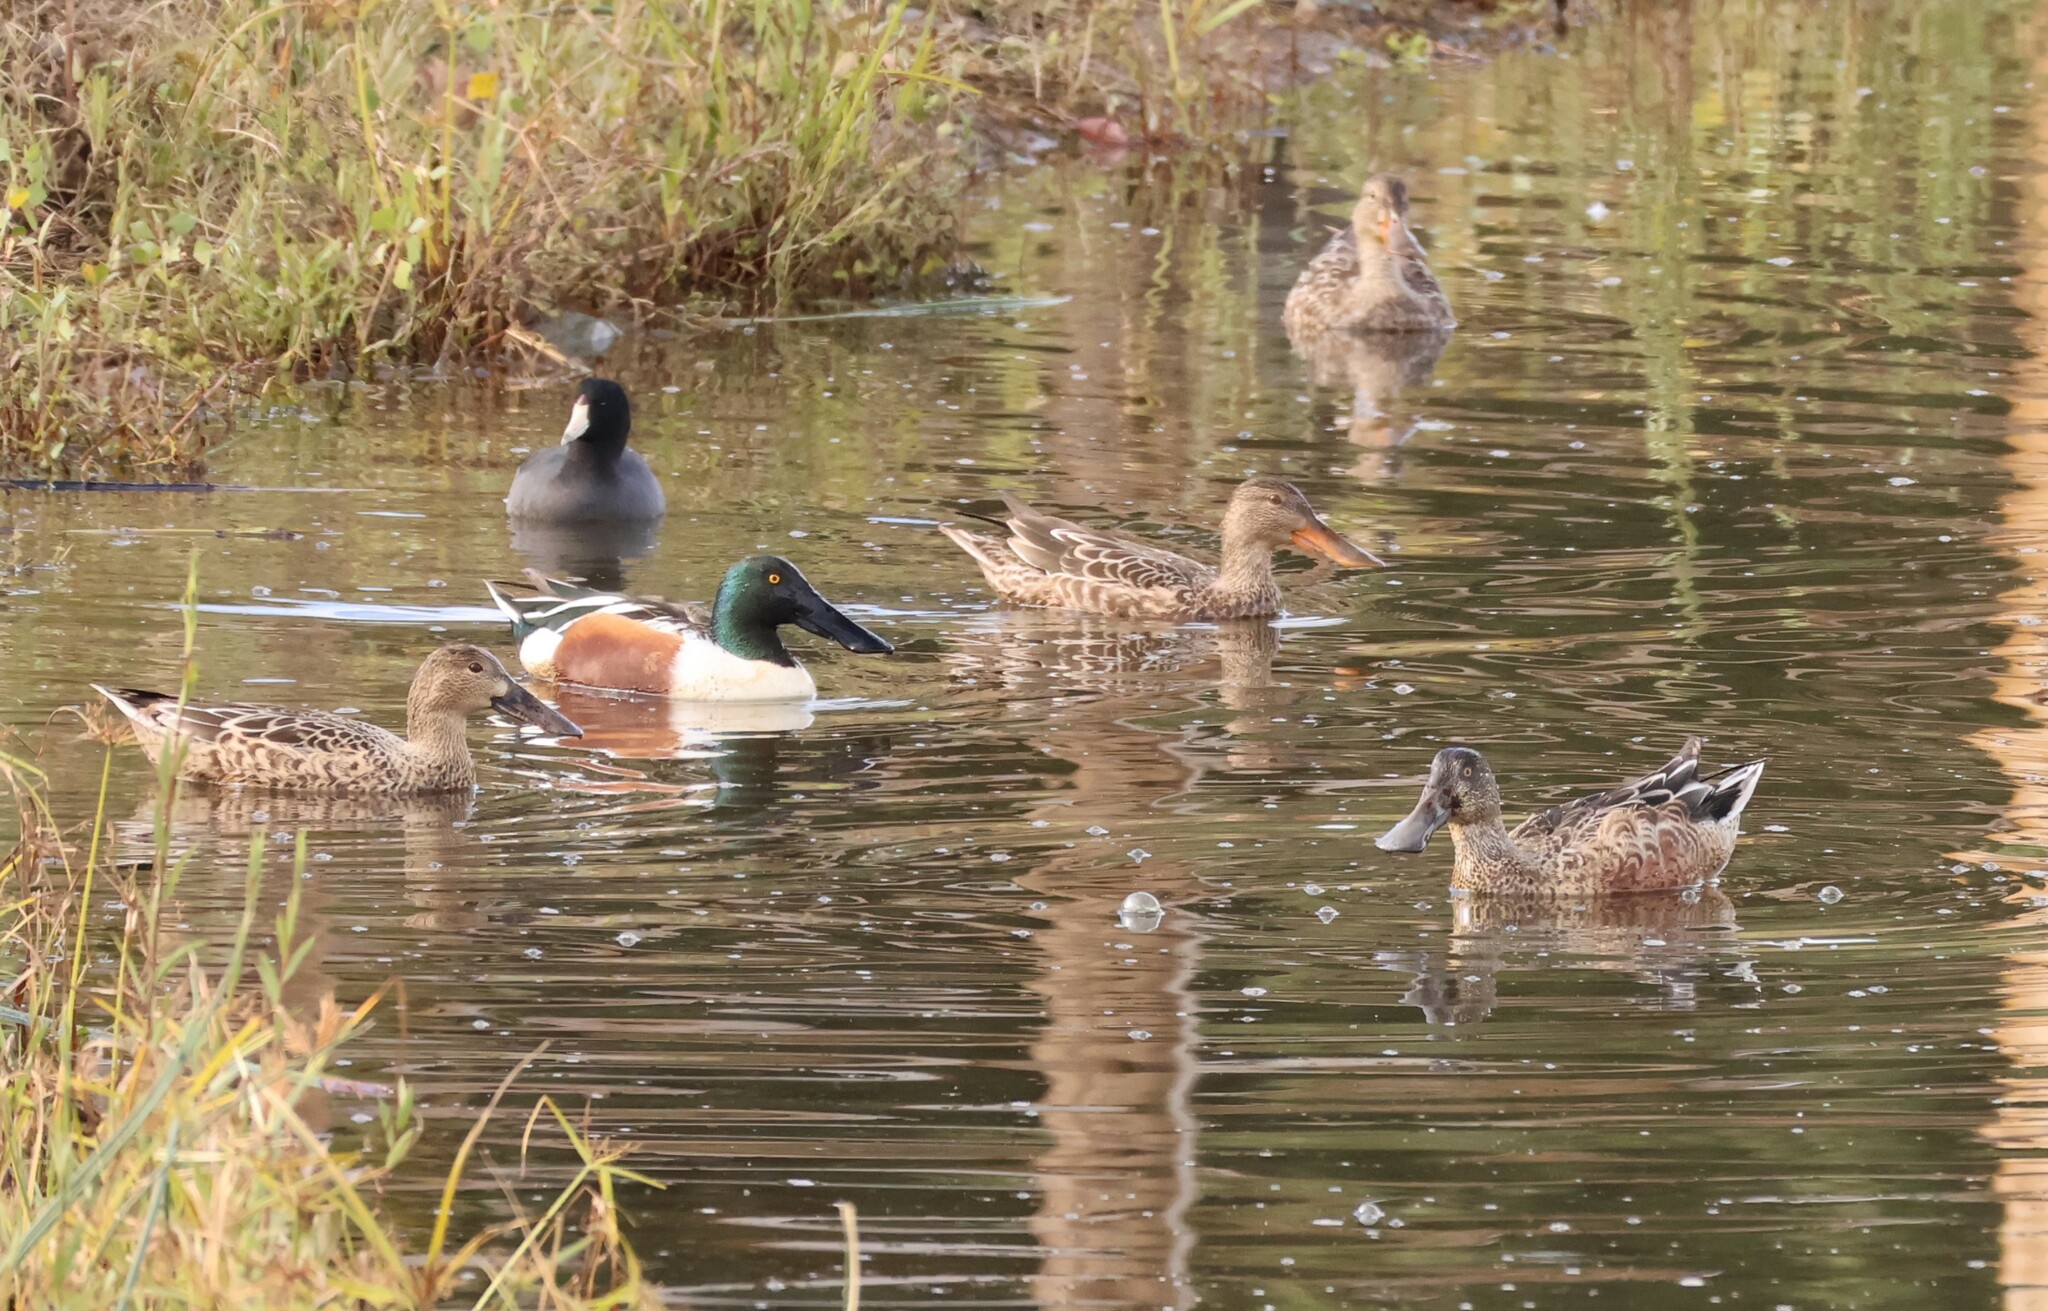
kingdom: Animalia
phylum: Chordata
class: Aves
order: Anseriformes
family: Anatidae
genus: Spatula
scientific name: Spatula clypeata
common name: Northern shoveler
